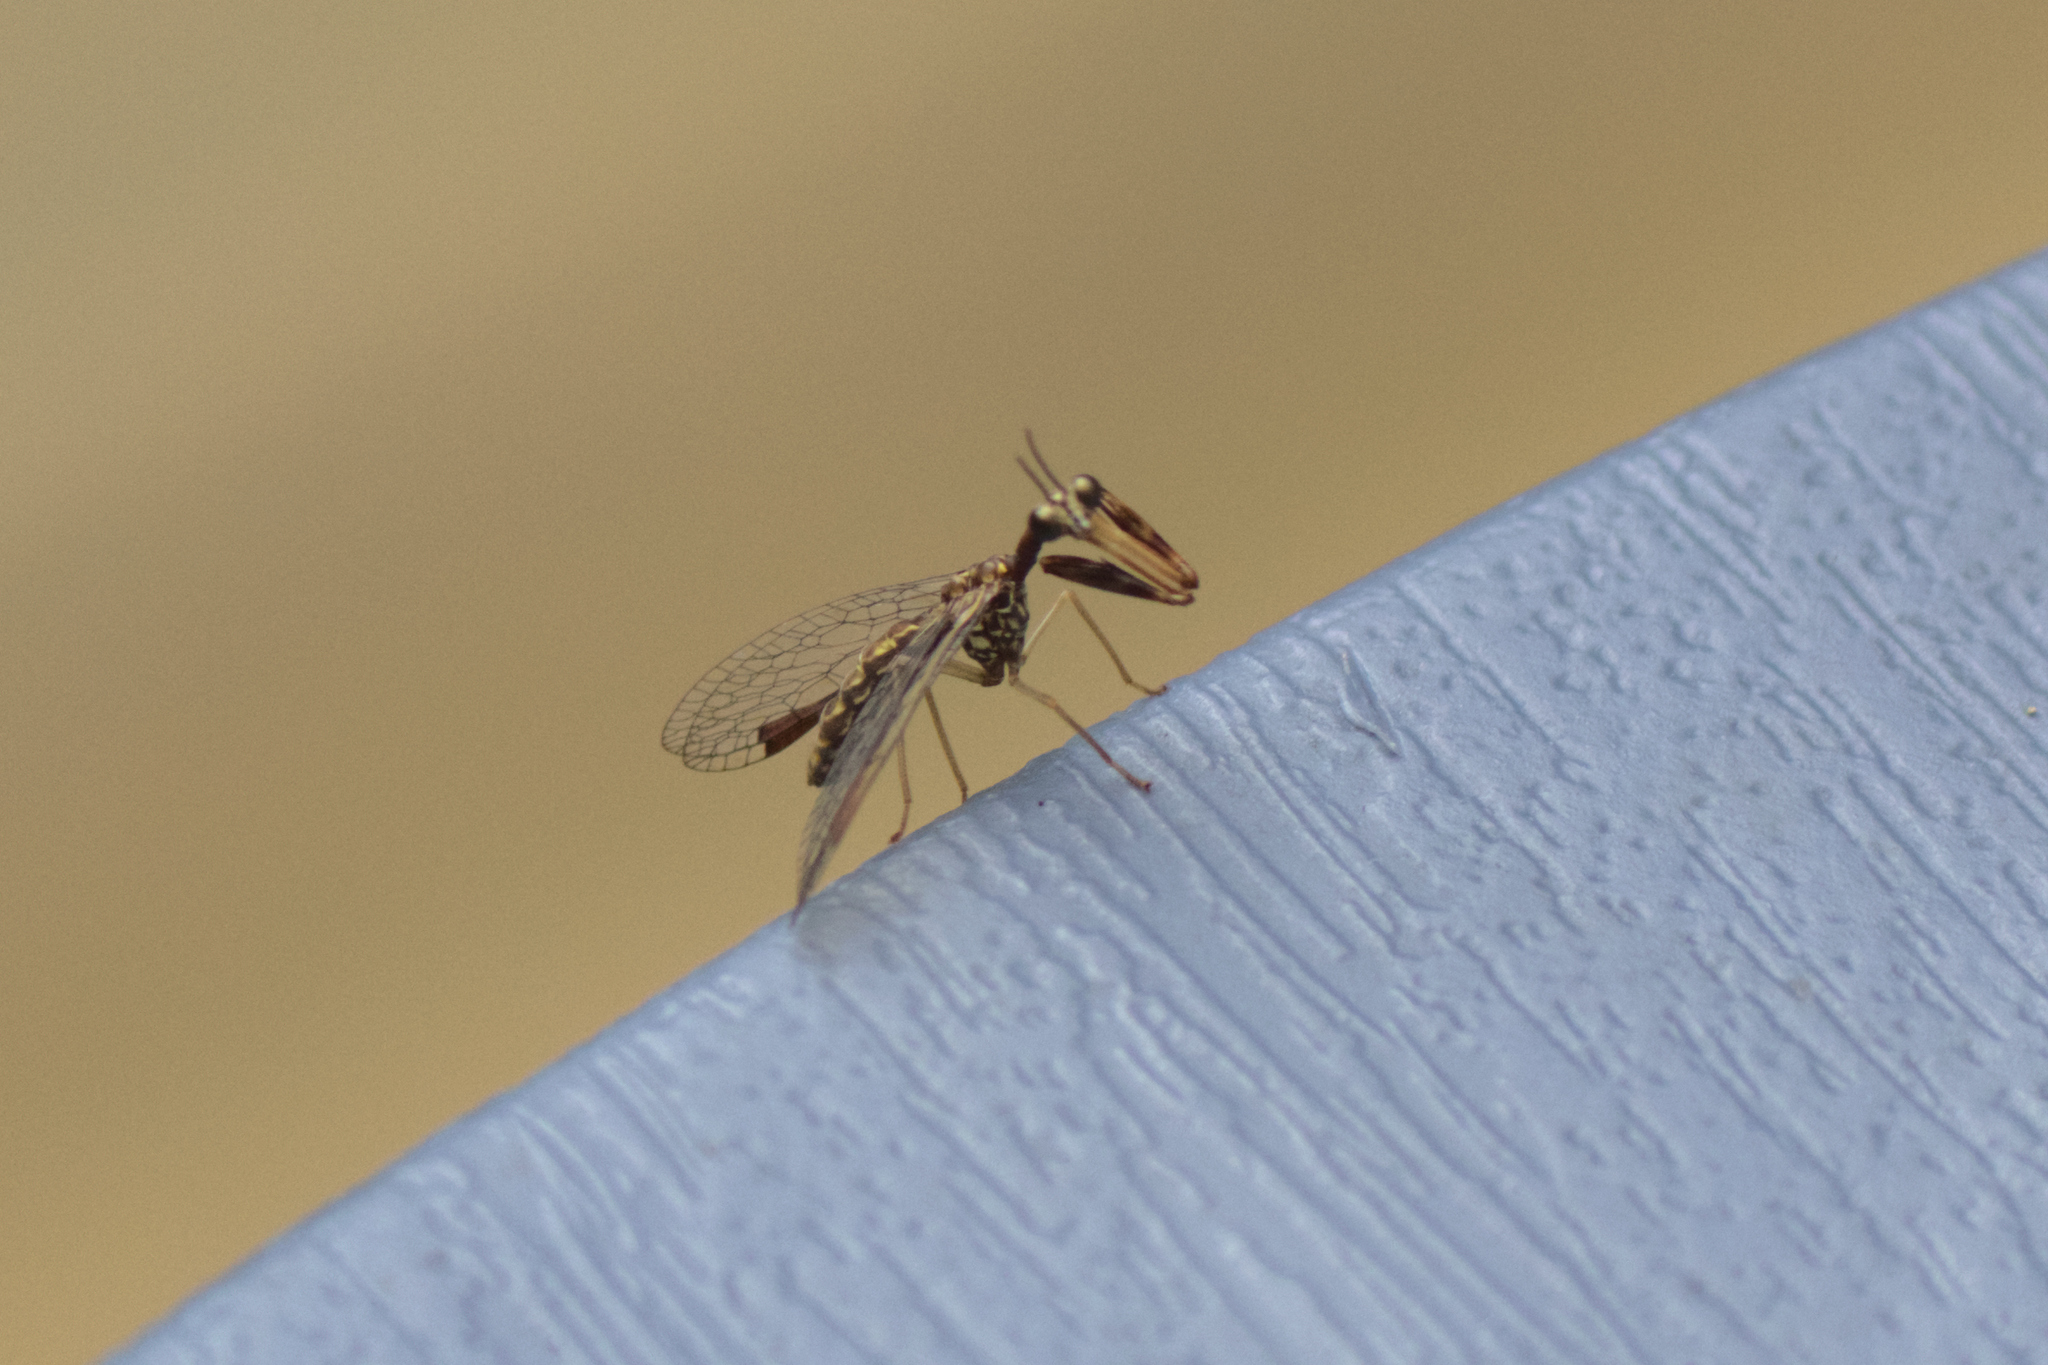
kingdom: Animalia
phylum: Arthropoda
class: Insecta
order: Neuroptera
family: Mantispidae
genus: Leptomantispa
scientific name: Leptomantispa pulchella
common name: Stevens's mantidfly
